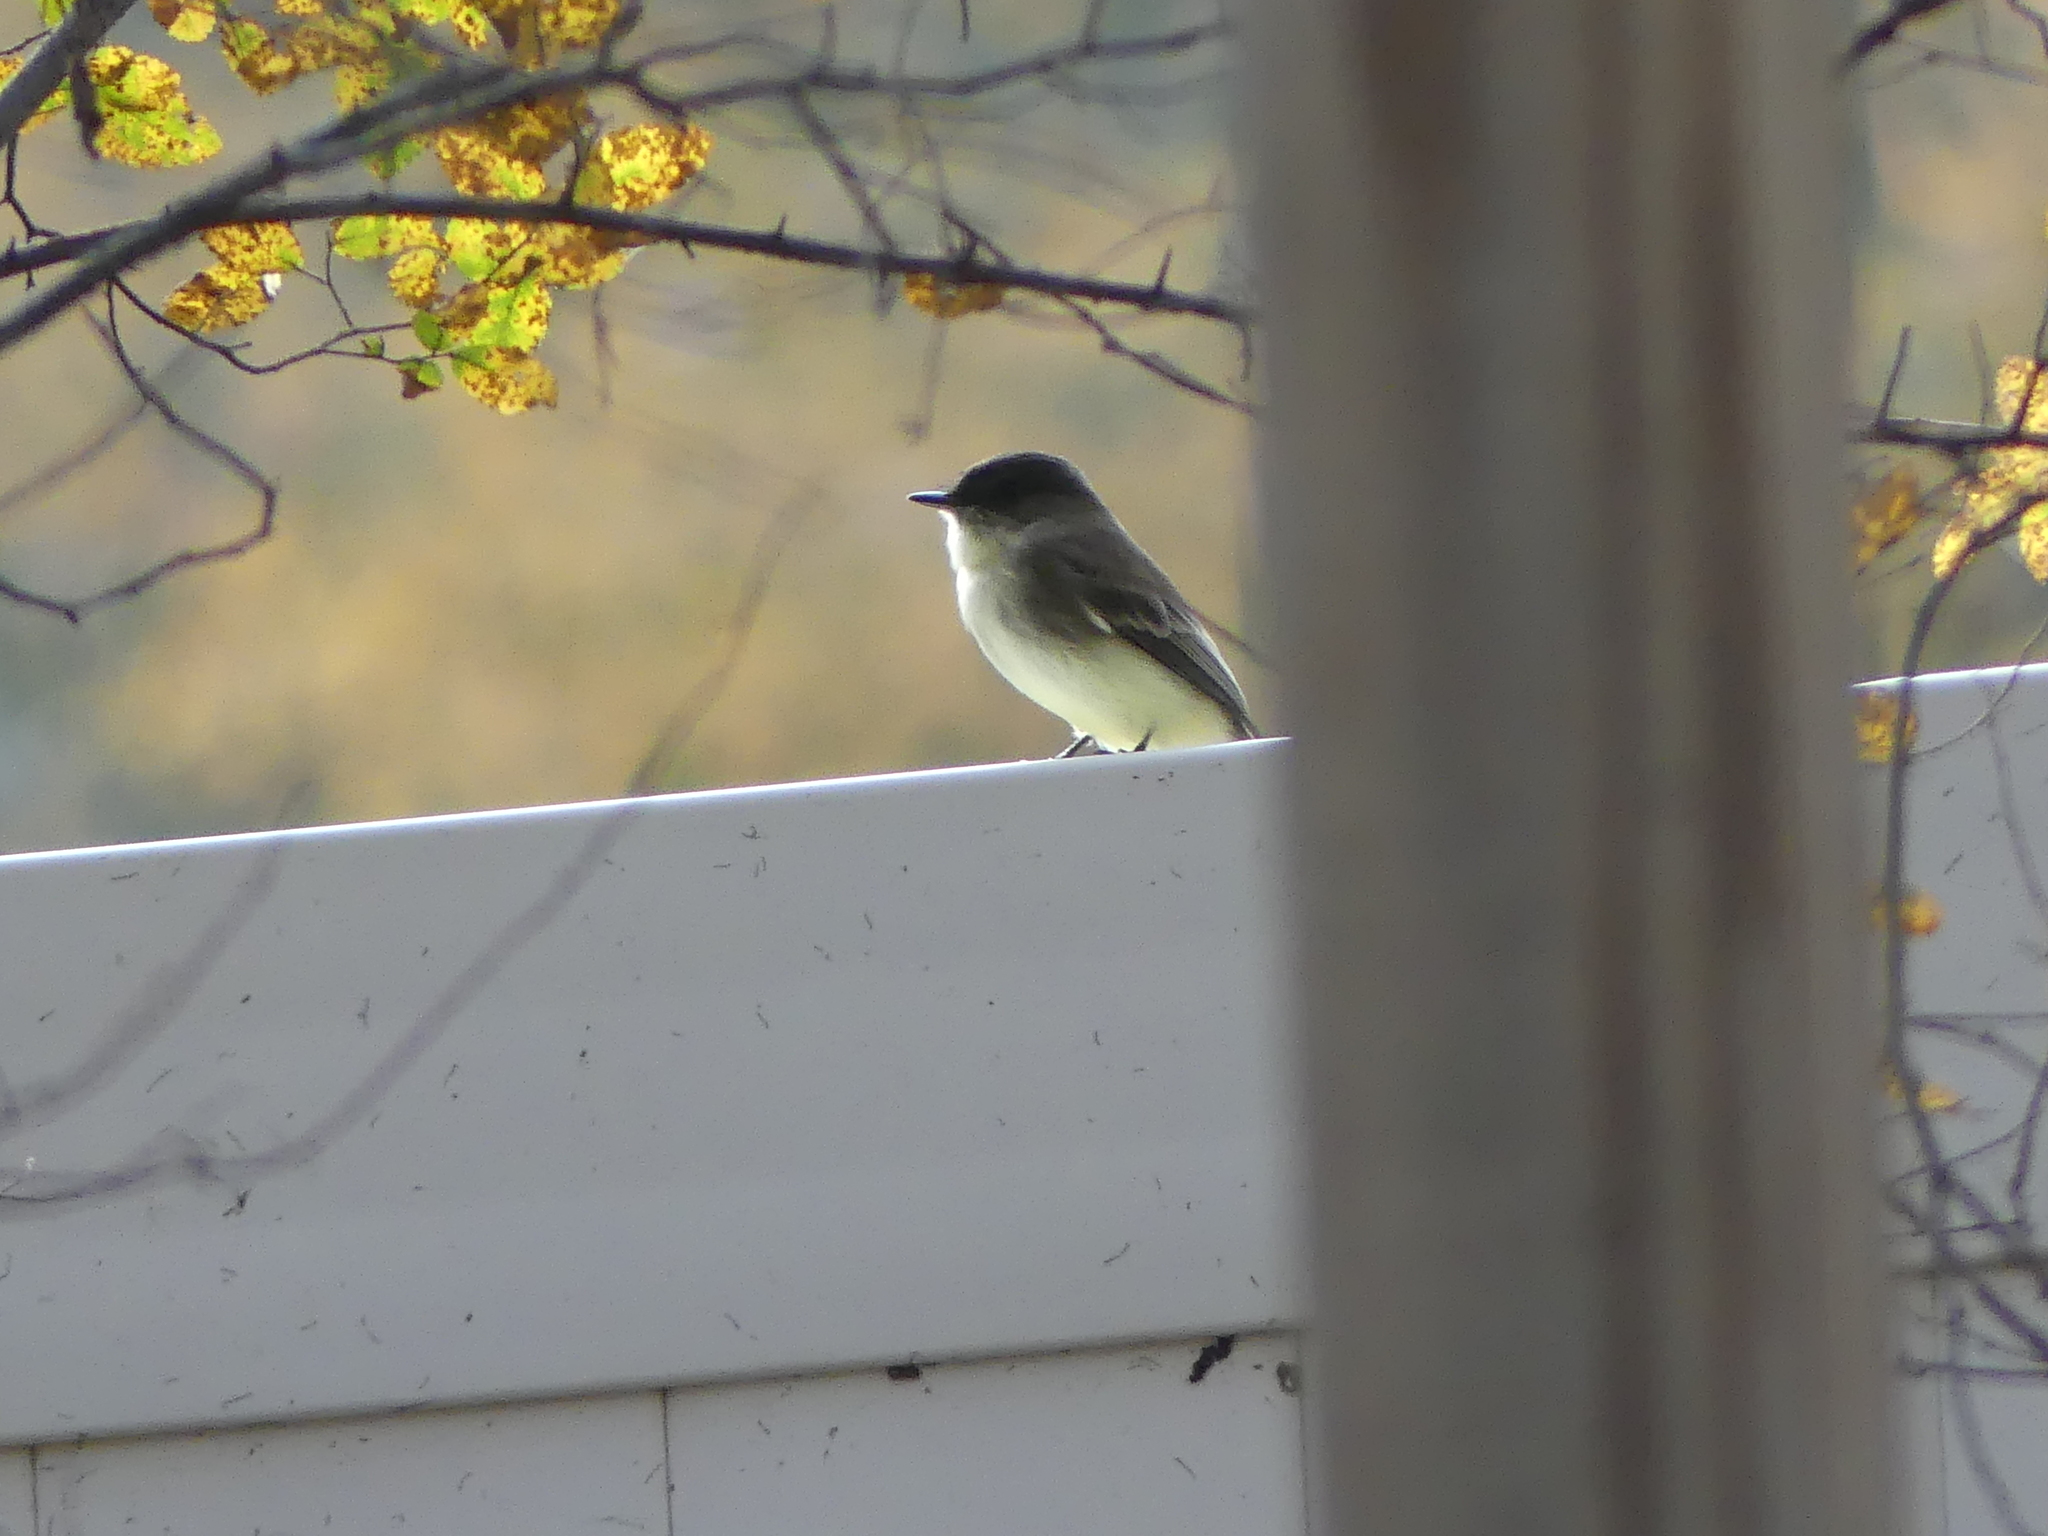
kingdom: Animalia
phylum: Chordata
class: Aves
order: Passeriformes
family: Tyrannidae
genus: Sayornis
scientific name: Sayornis phoebe
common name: Eastern phoebe
